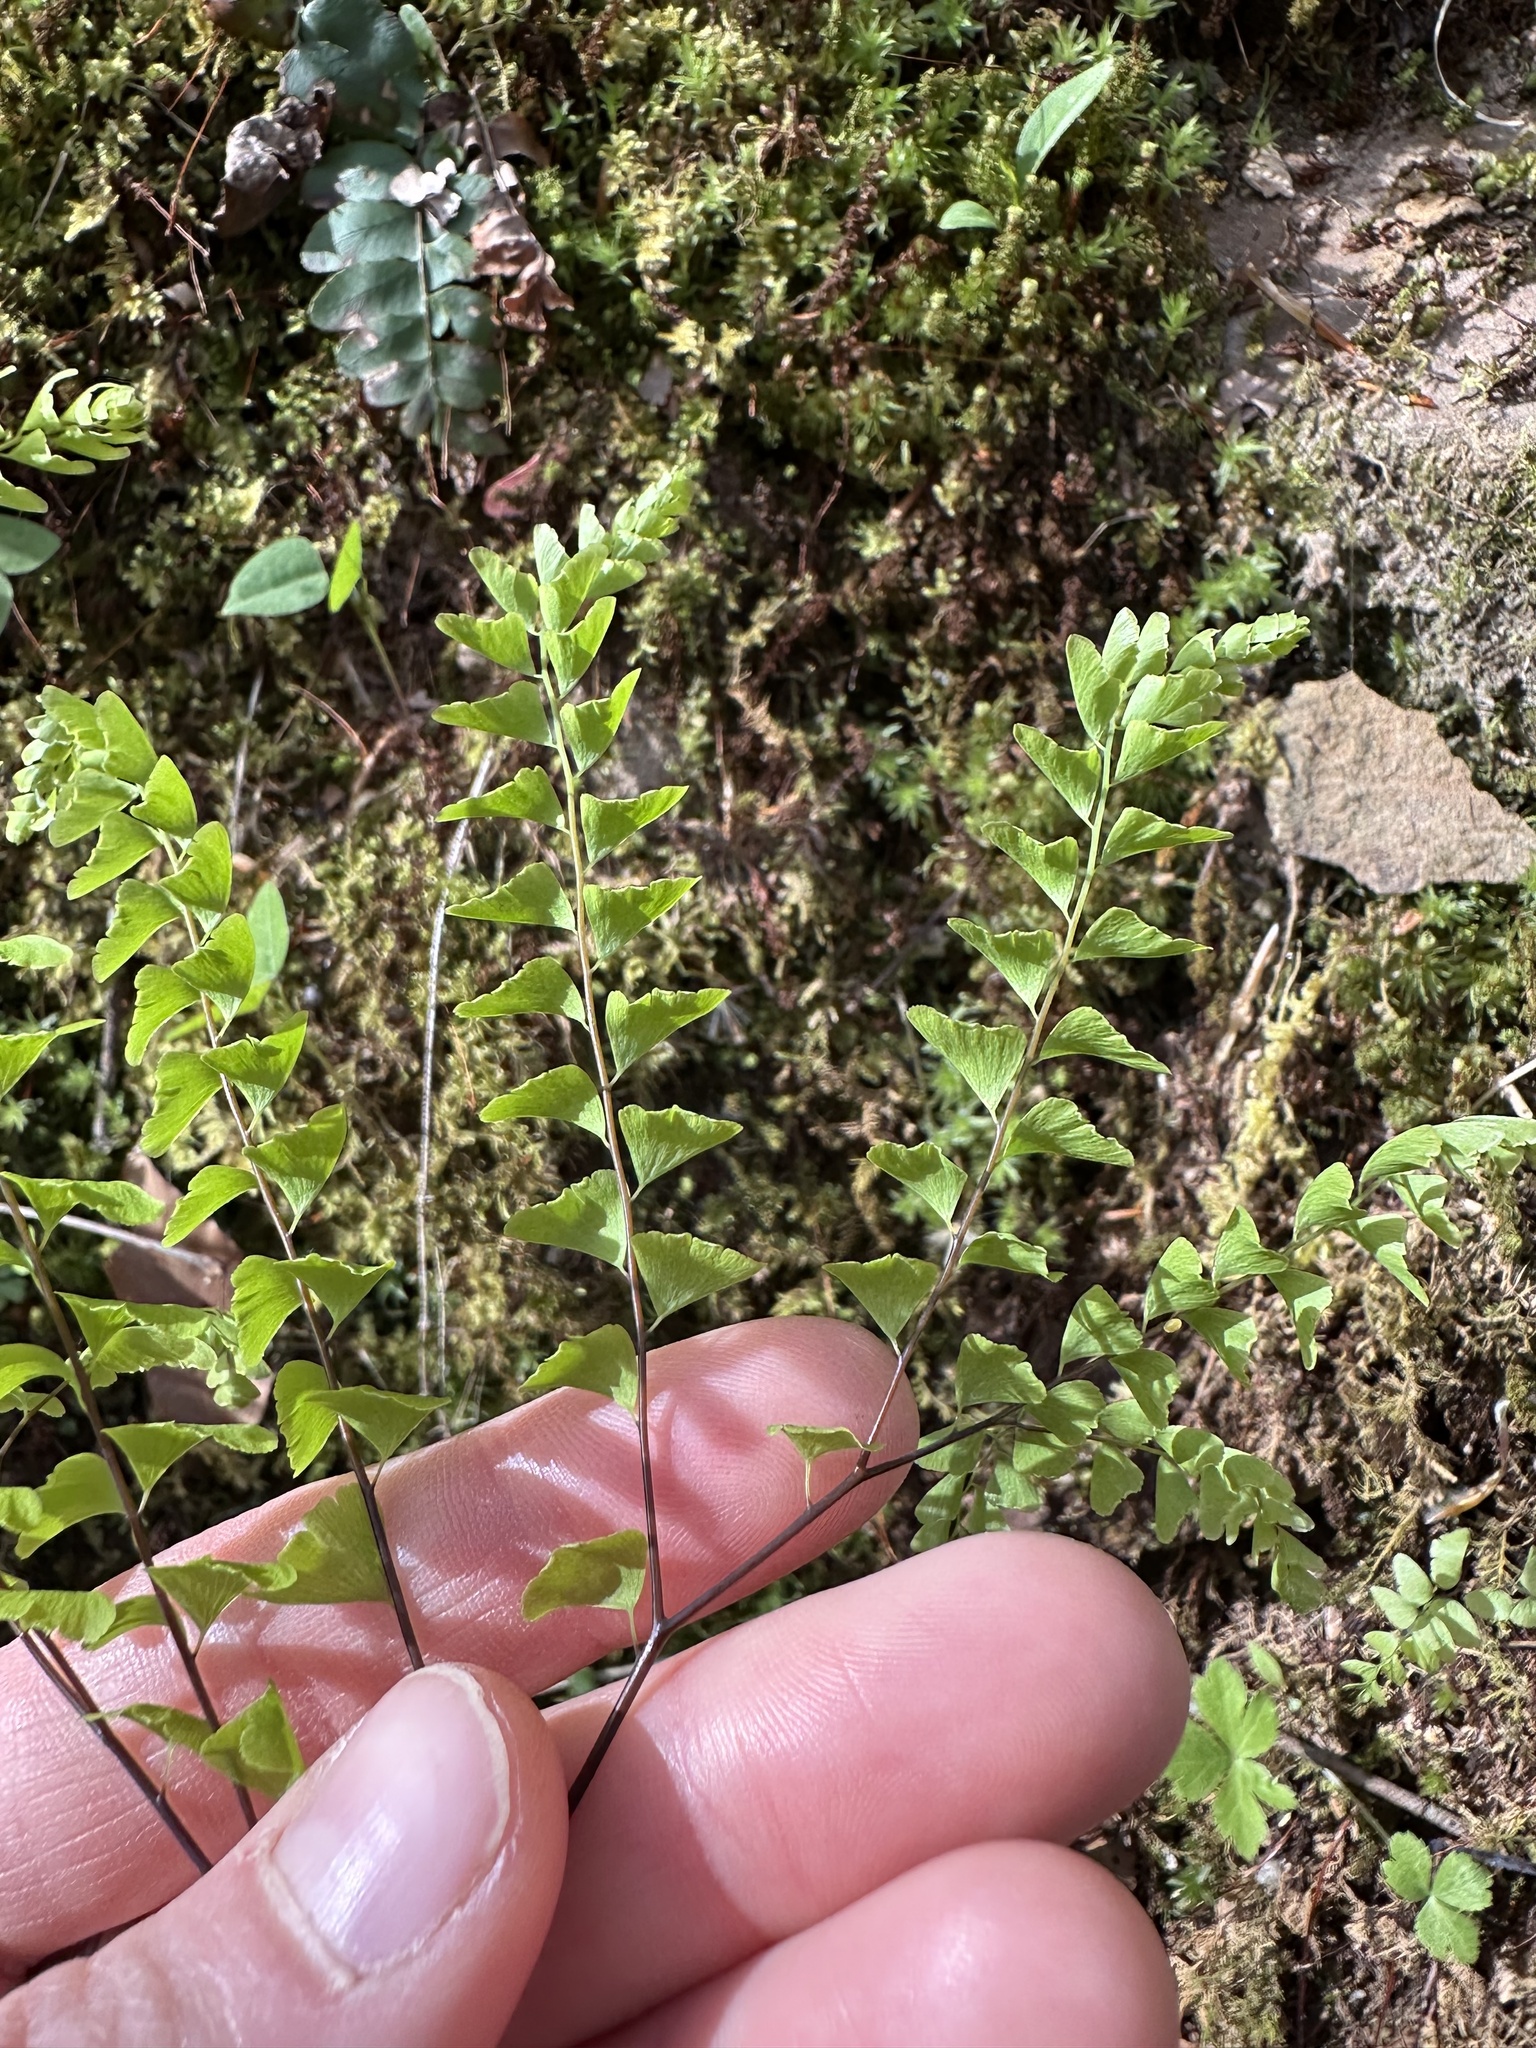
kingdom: Plantae
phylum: Tracheophyta
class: Polypodiopsida
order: Polypodiales
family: Pteridaceae
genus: Adiantum
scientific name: Adiantum pedatum
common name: Five-finger fern
